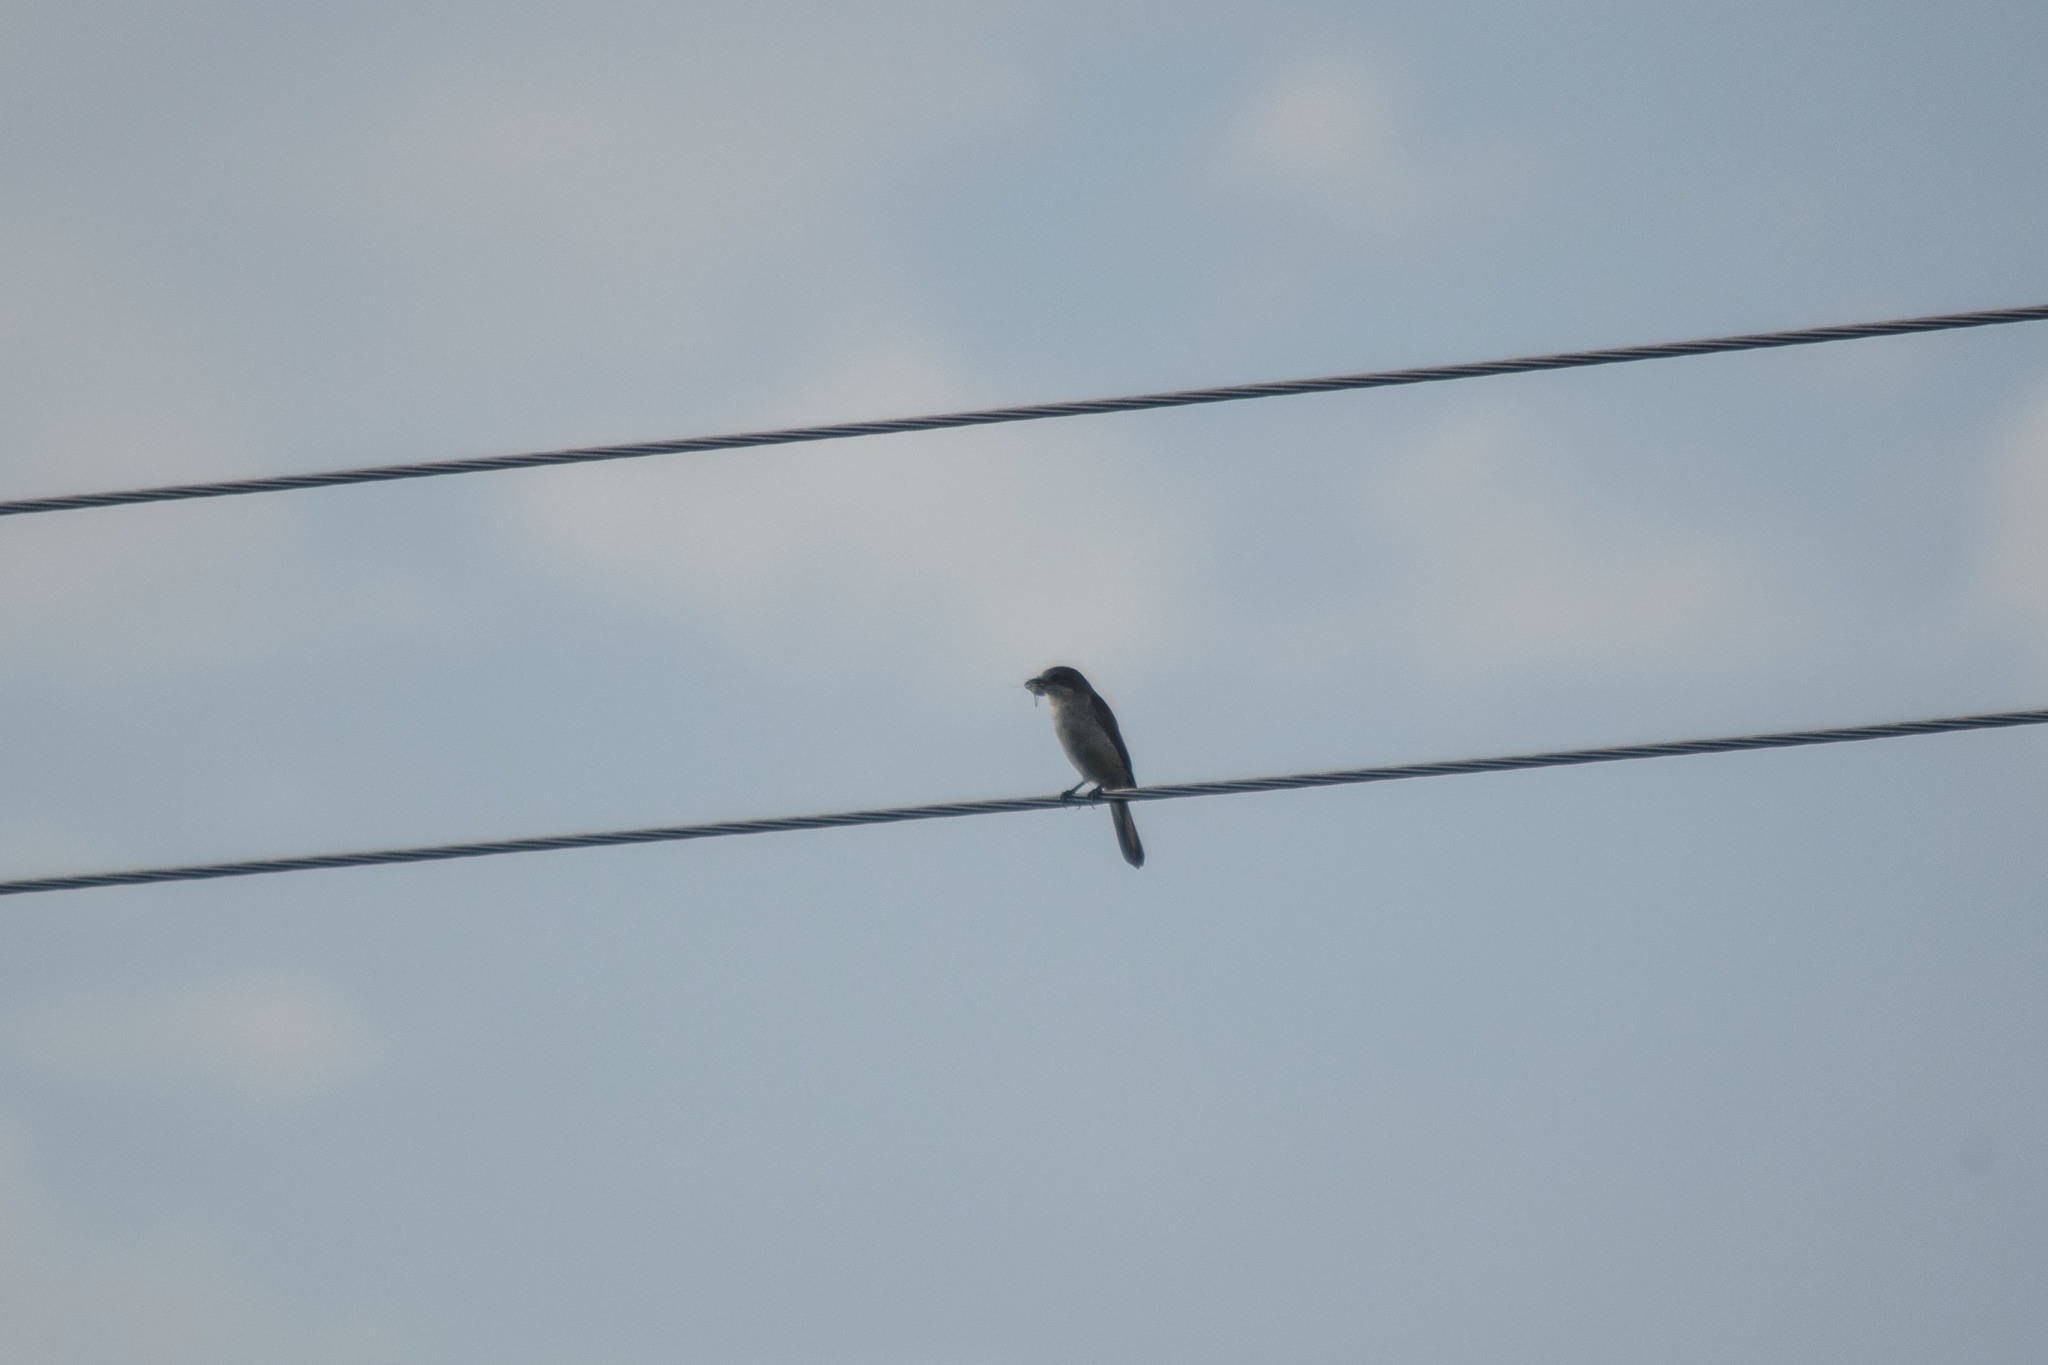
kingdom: Animalia
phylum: Chordata
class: Aves
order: Passeriformes
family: Laniidae
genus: Lanius
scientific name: Lanius collurio
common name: Red-backed shrike
